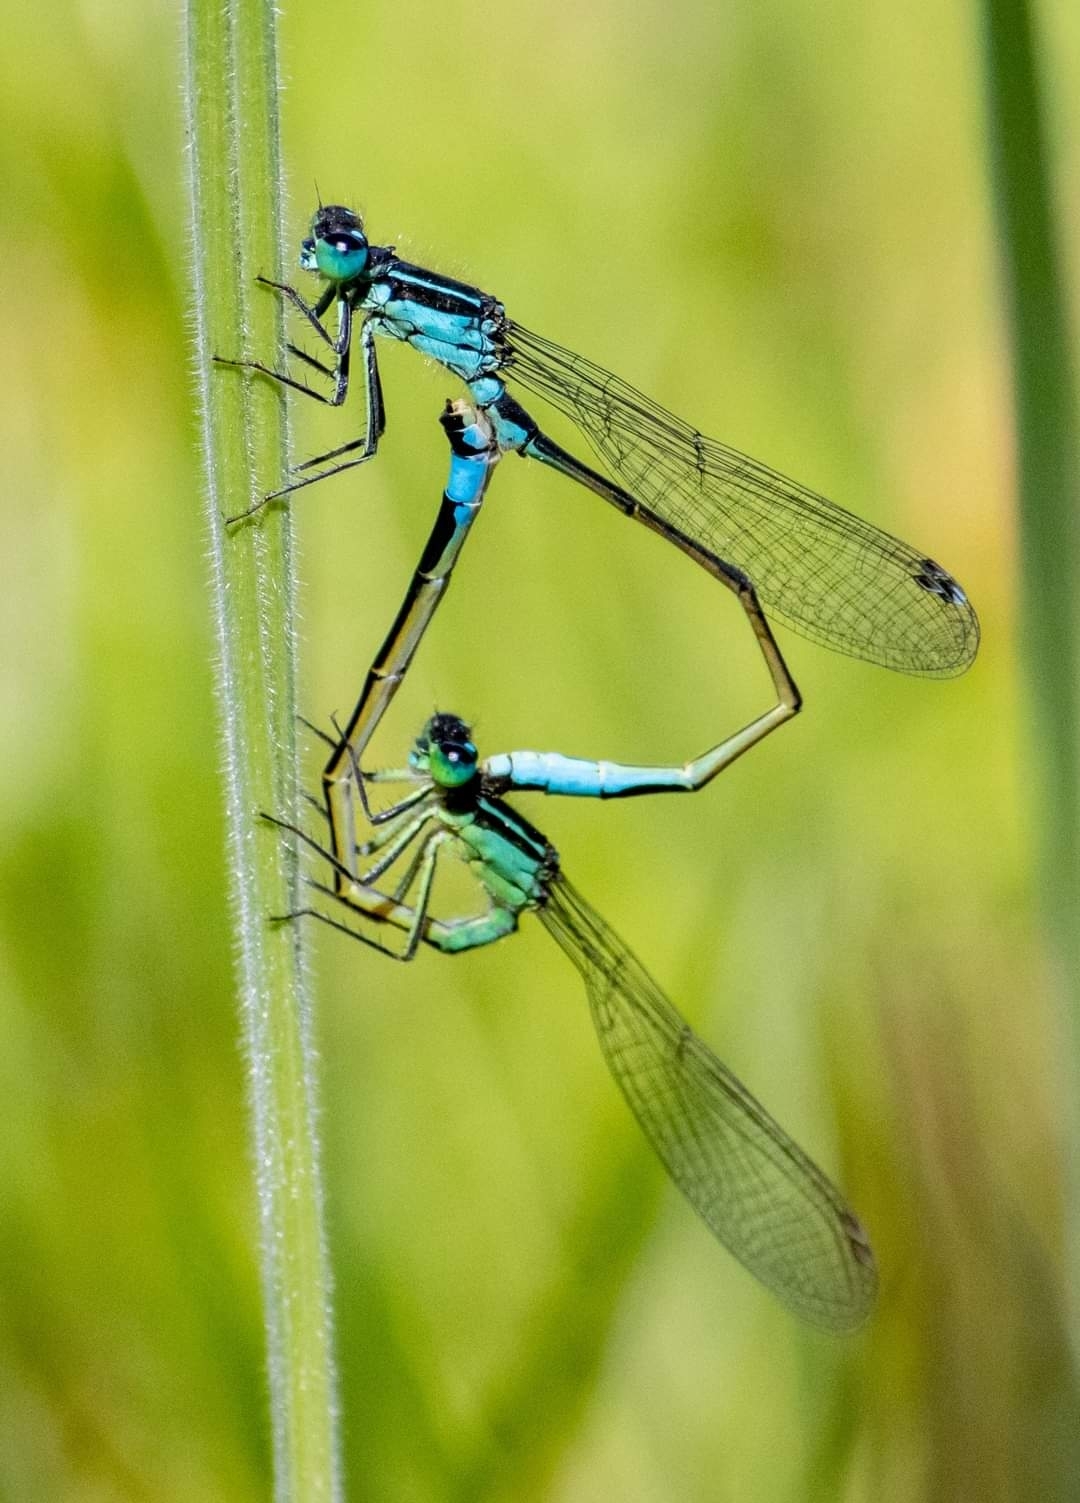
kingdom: Animalia
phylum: Arthropoda
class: Insecta
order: Odonata
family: Coenagrionidae
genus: Ischnura
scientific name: Ischnura elegans
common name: Blue-tailed damselfly
